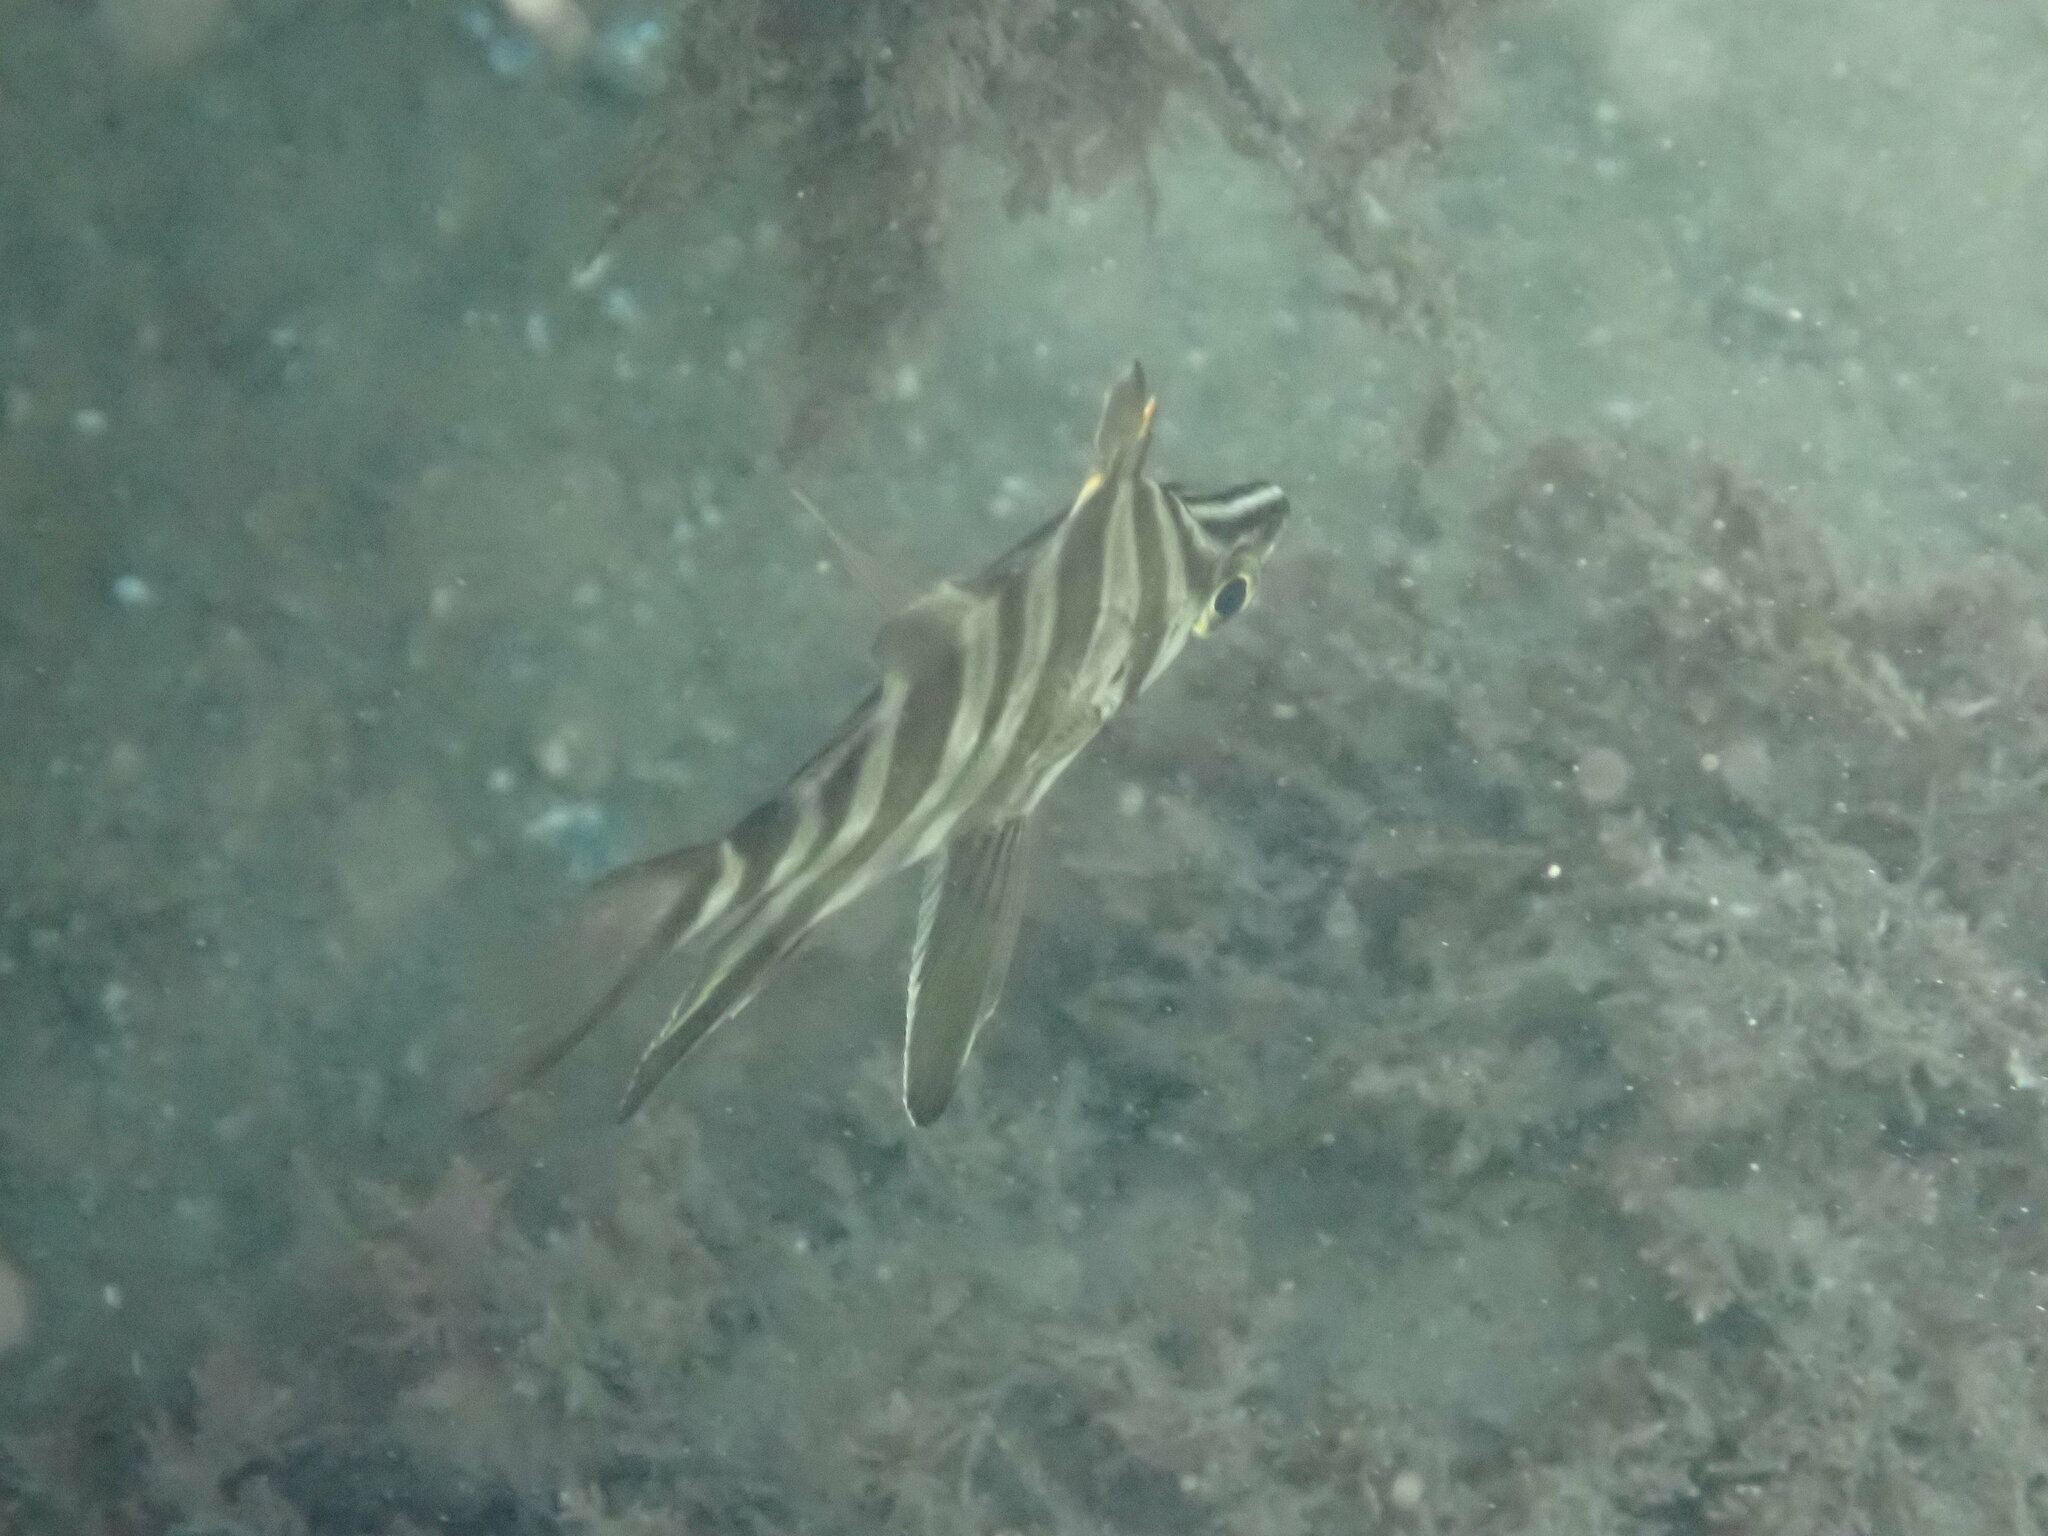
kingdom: Animalia
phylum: Chordata
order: Perciformes
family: Enoplosidae
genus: Enoplosus
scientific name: Enoplosus armatus
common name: Old wife
